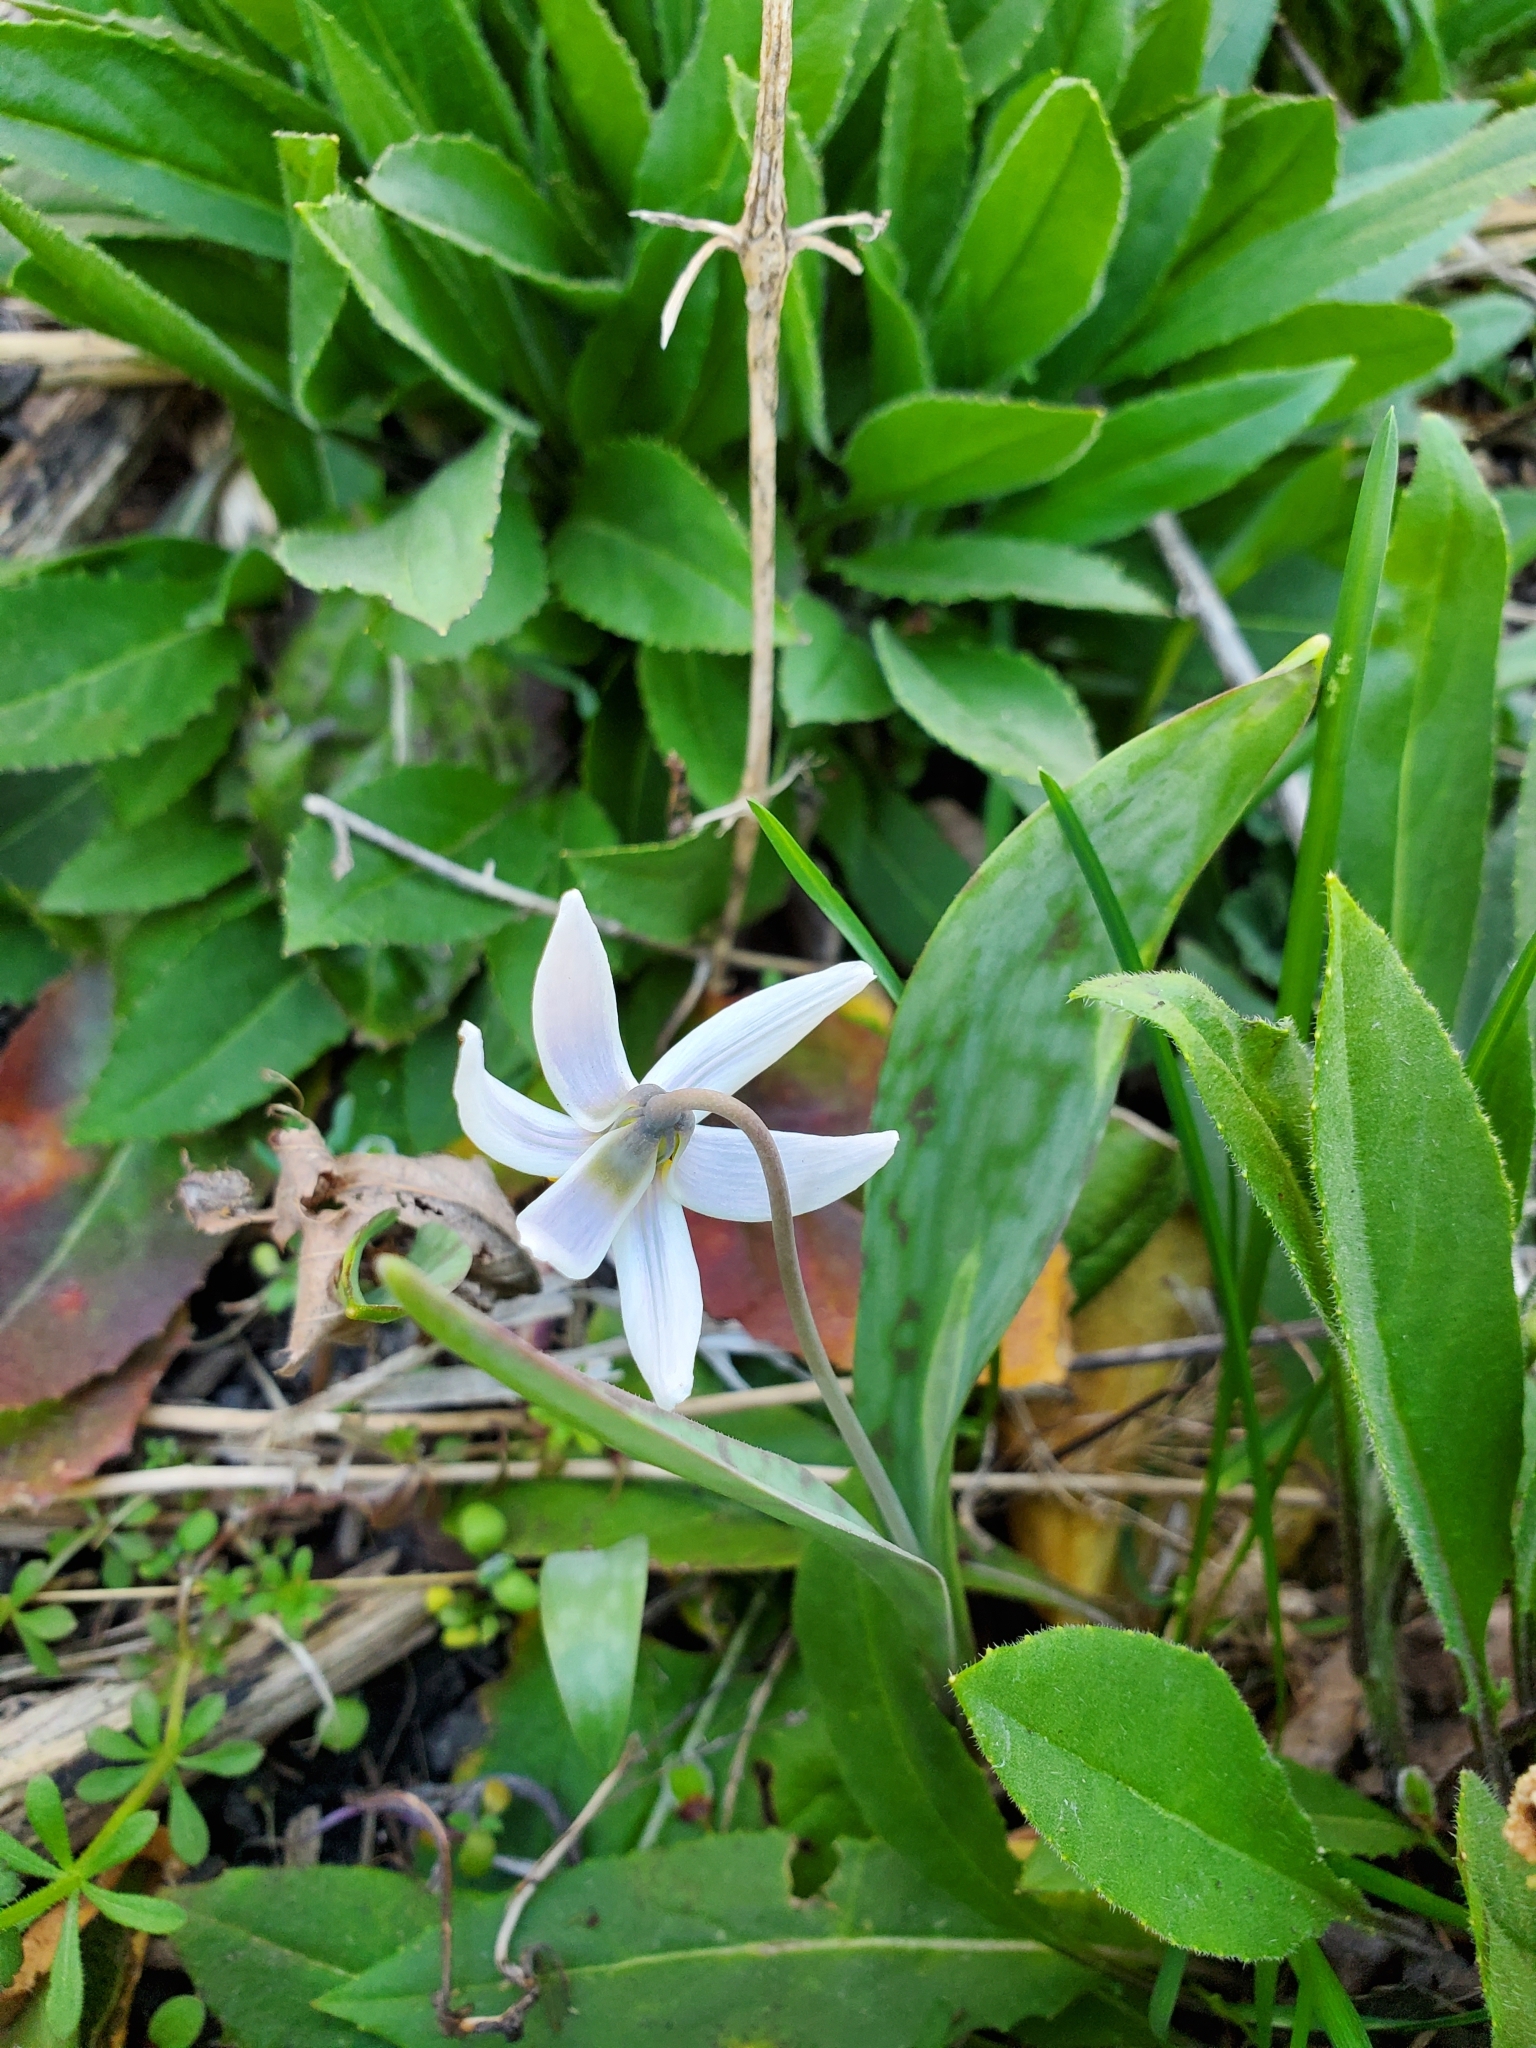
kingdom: Plantae
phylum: Tracheophyta
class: Liliopsida
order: Liliales
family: Liliaceae
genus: Erythronium
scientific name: Erythronium albidum
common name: White trout-lily
